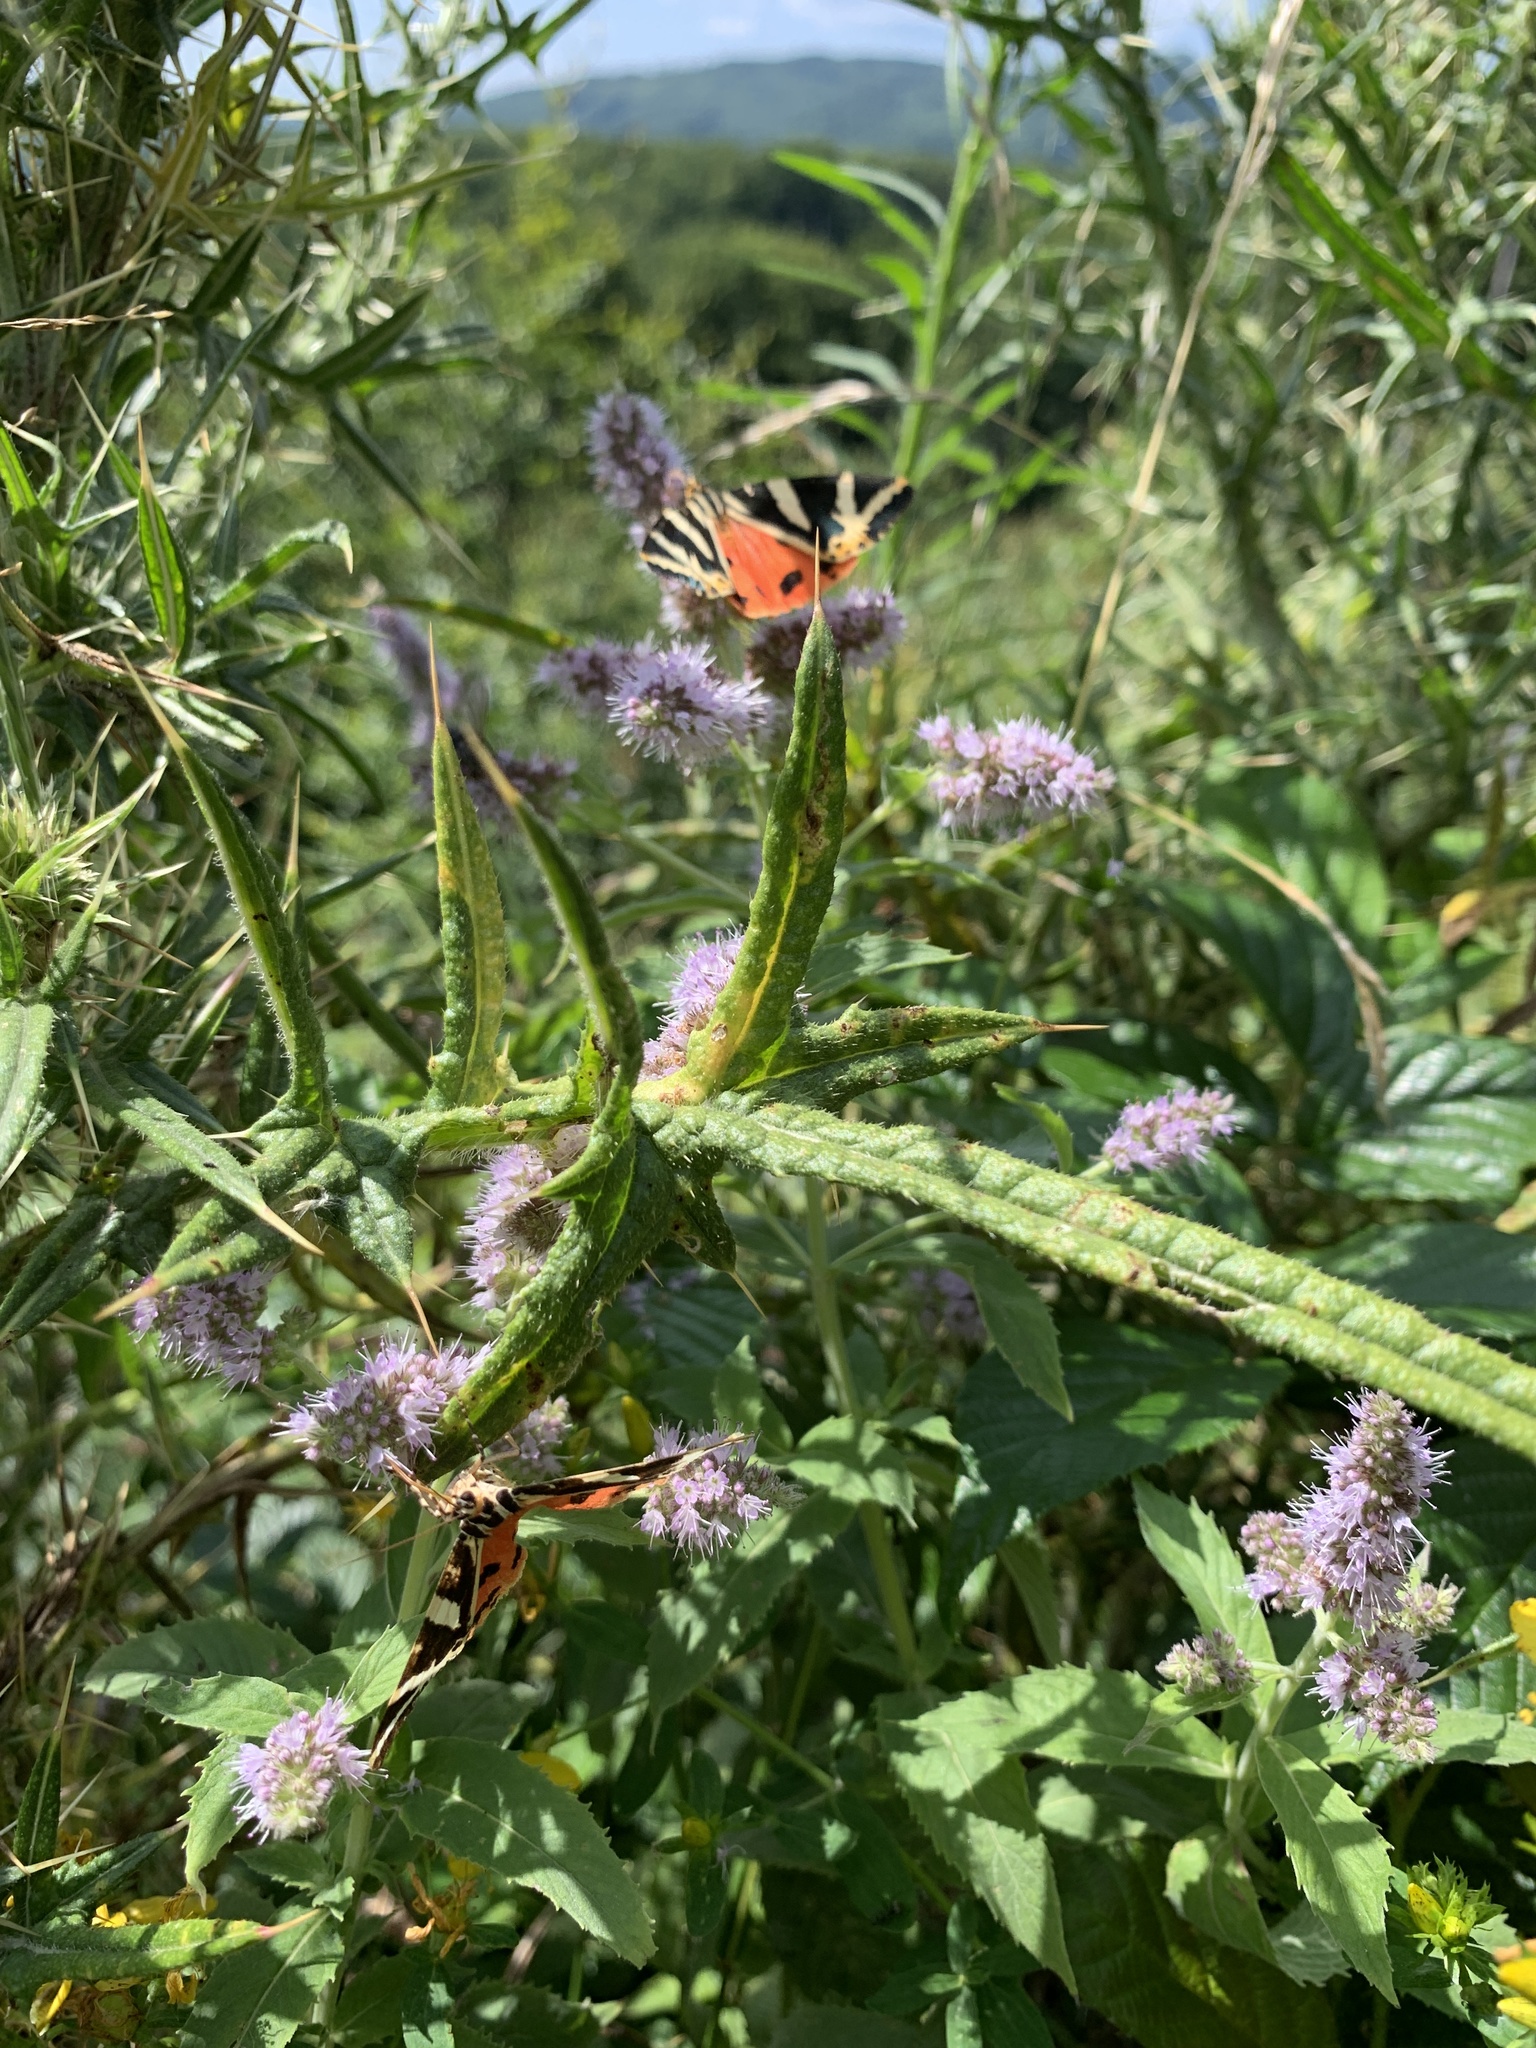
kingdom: Animalia
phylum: Arthropoda
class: Insecta
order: Lepidoptera
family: Erebidae
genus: Euplagia
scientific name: Euplagia quadripunctaria
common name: Jersey tiger
